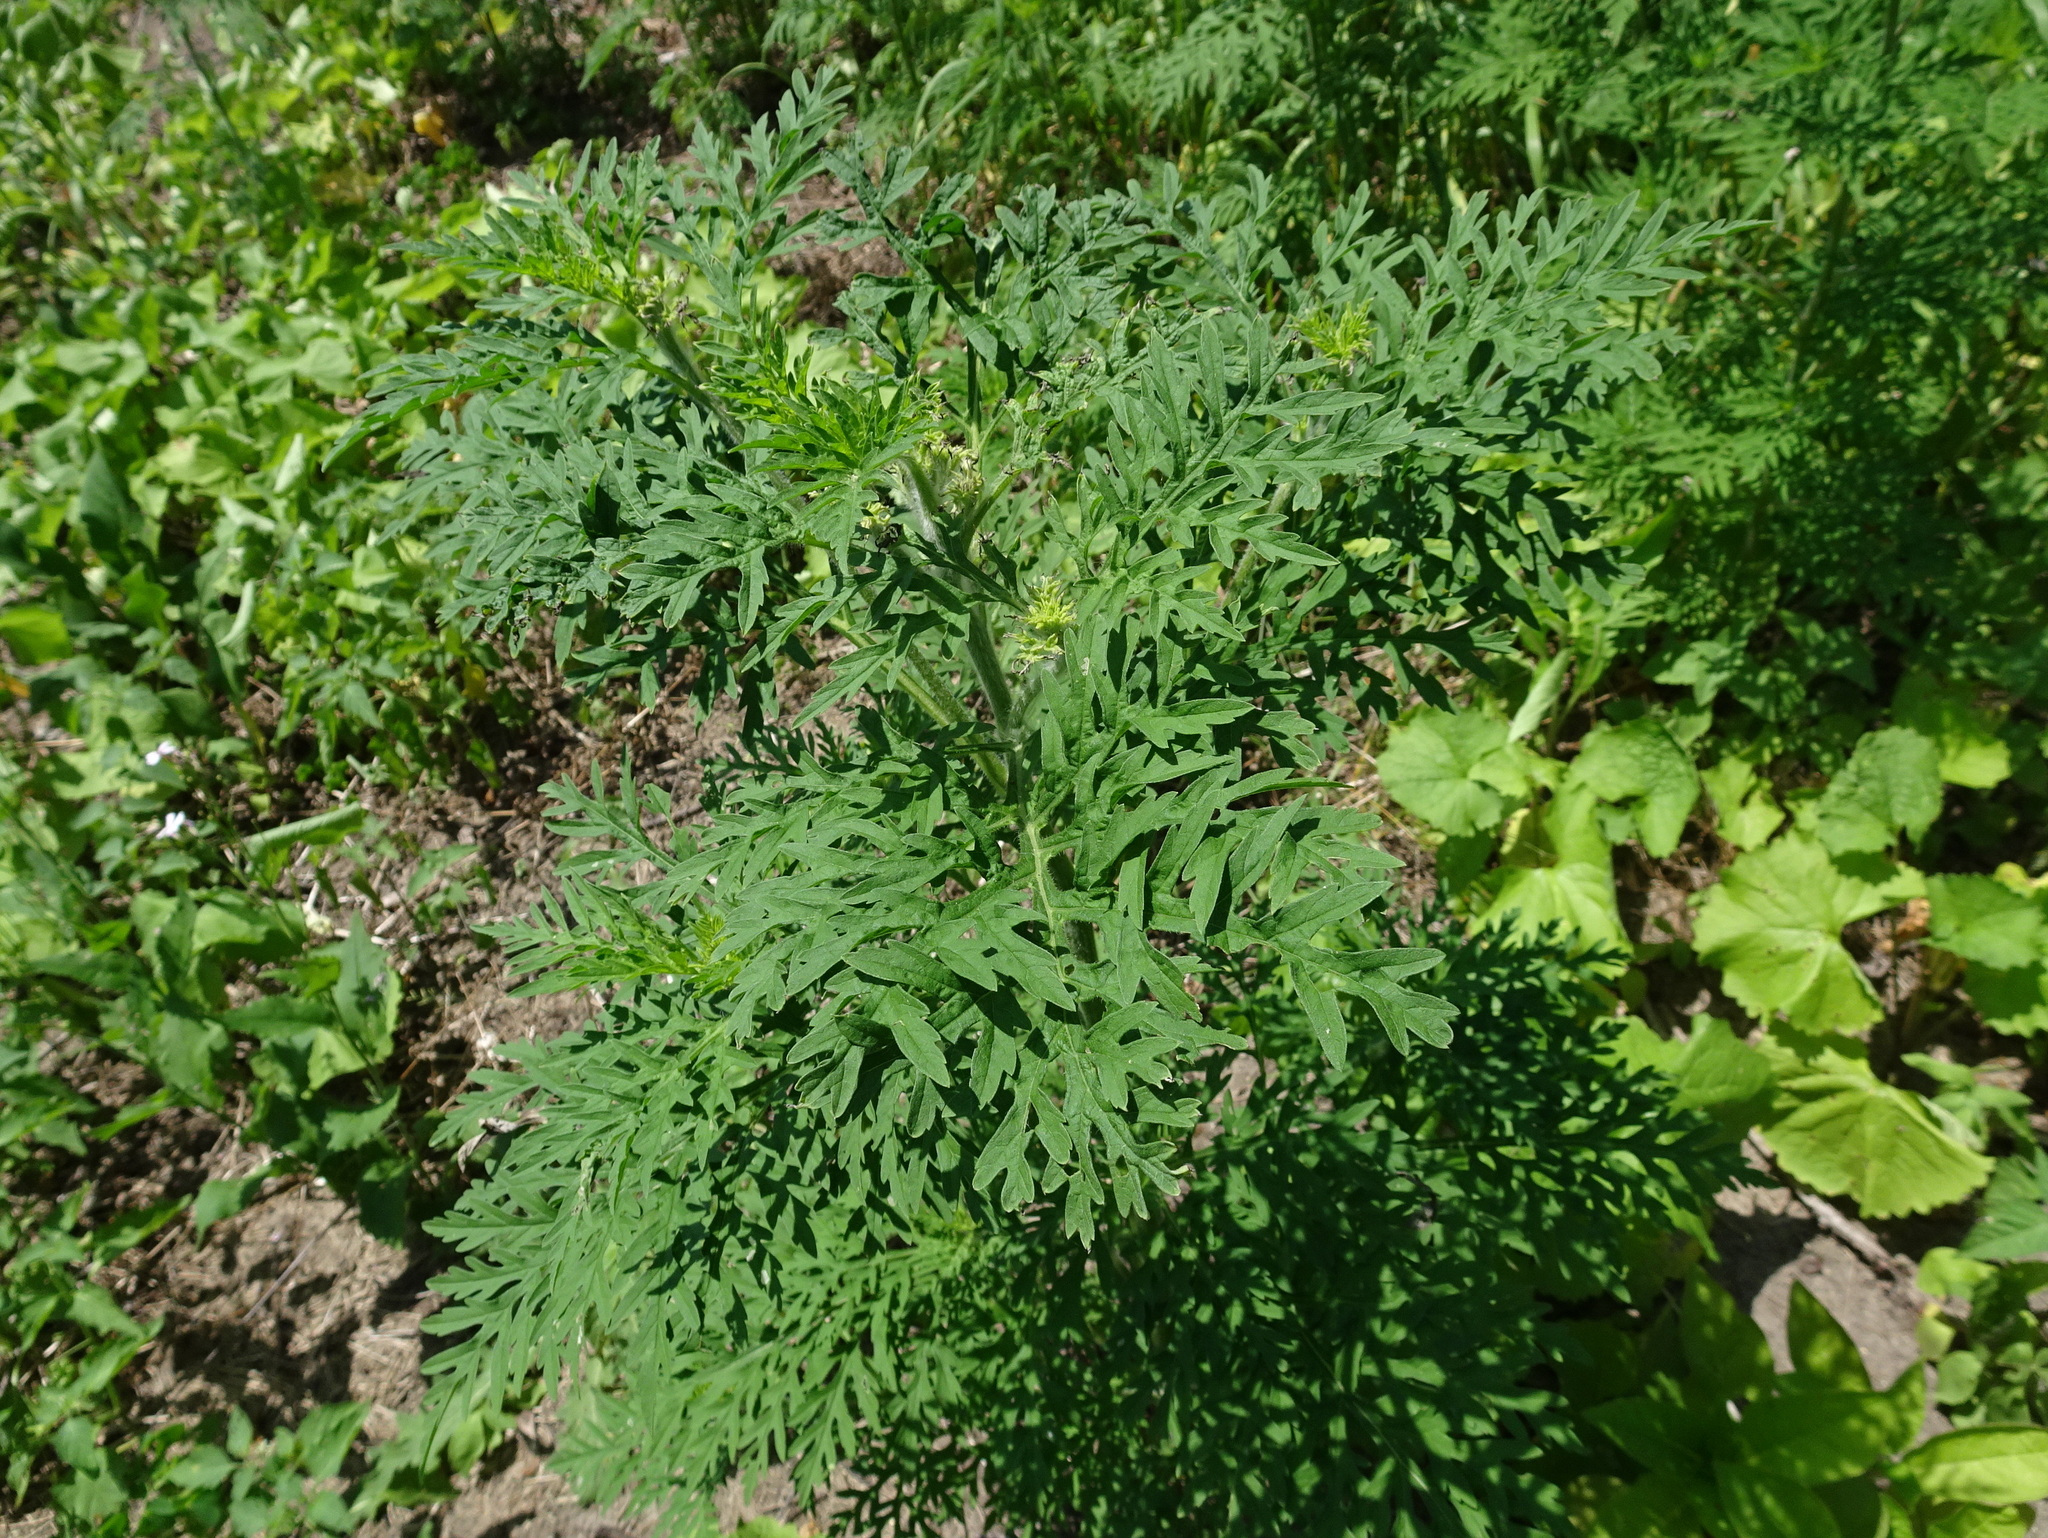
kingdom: Plantae
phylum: Tracheophyta
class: Magnoliopsida
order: Asterales
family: Asteraceae
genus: Ambrosia
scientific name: Ambrosia artemisiifolia
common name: Annual ragweed
